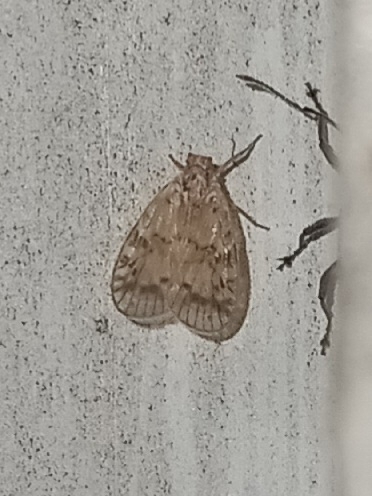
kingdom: Animalia
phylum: Arthropoda
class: Insecta
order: Hemiptera
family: Cixiidae
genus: Bothriocera
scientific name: Bothriocera drakei
